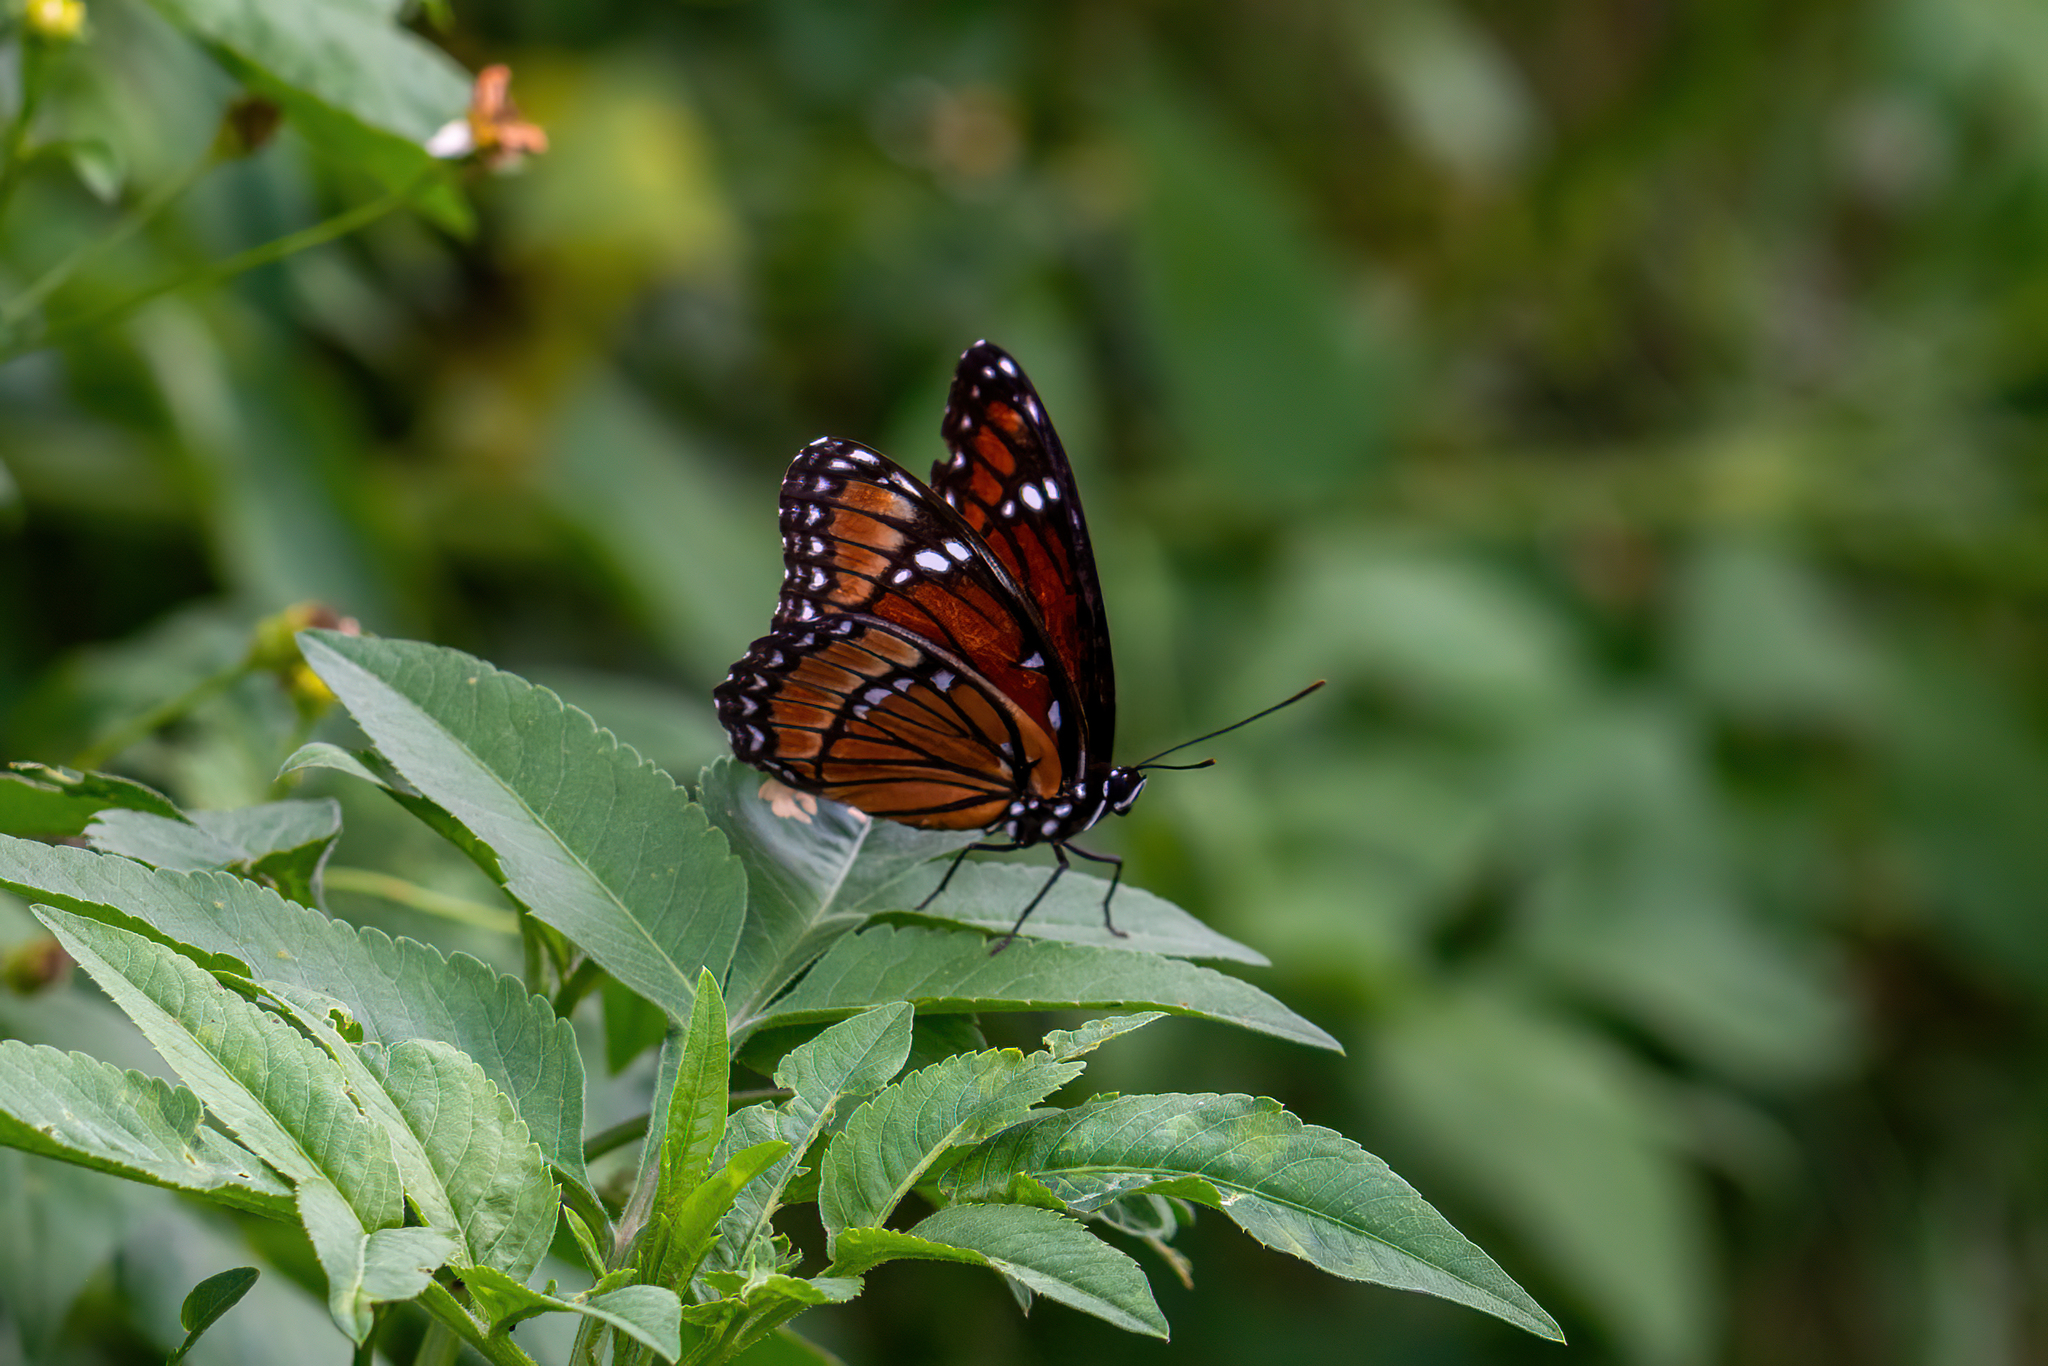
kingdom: Animalia
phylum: Arthropoda
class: Insecta
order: Lepidoptera
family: Nymphalidae
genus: Limenitis
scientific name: Limenitis archippus
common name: Viceroy
